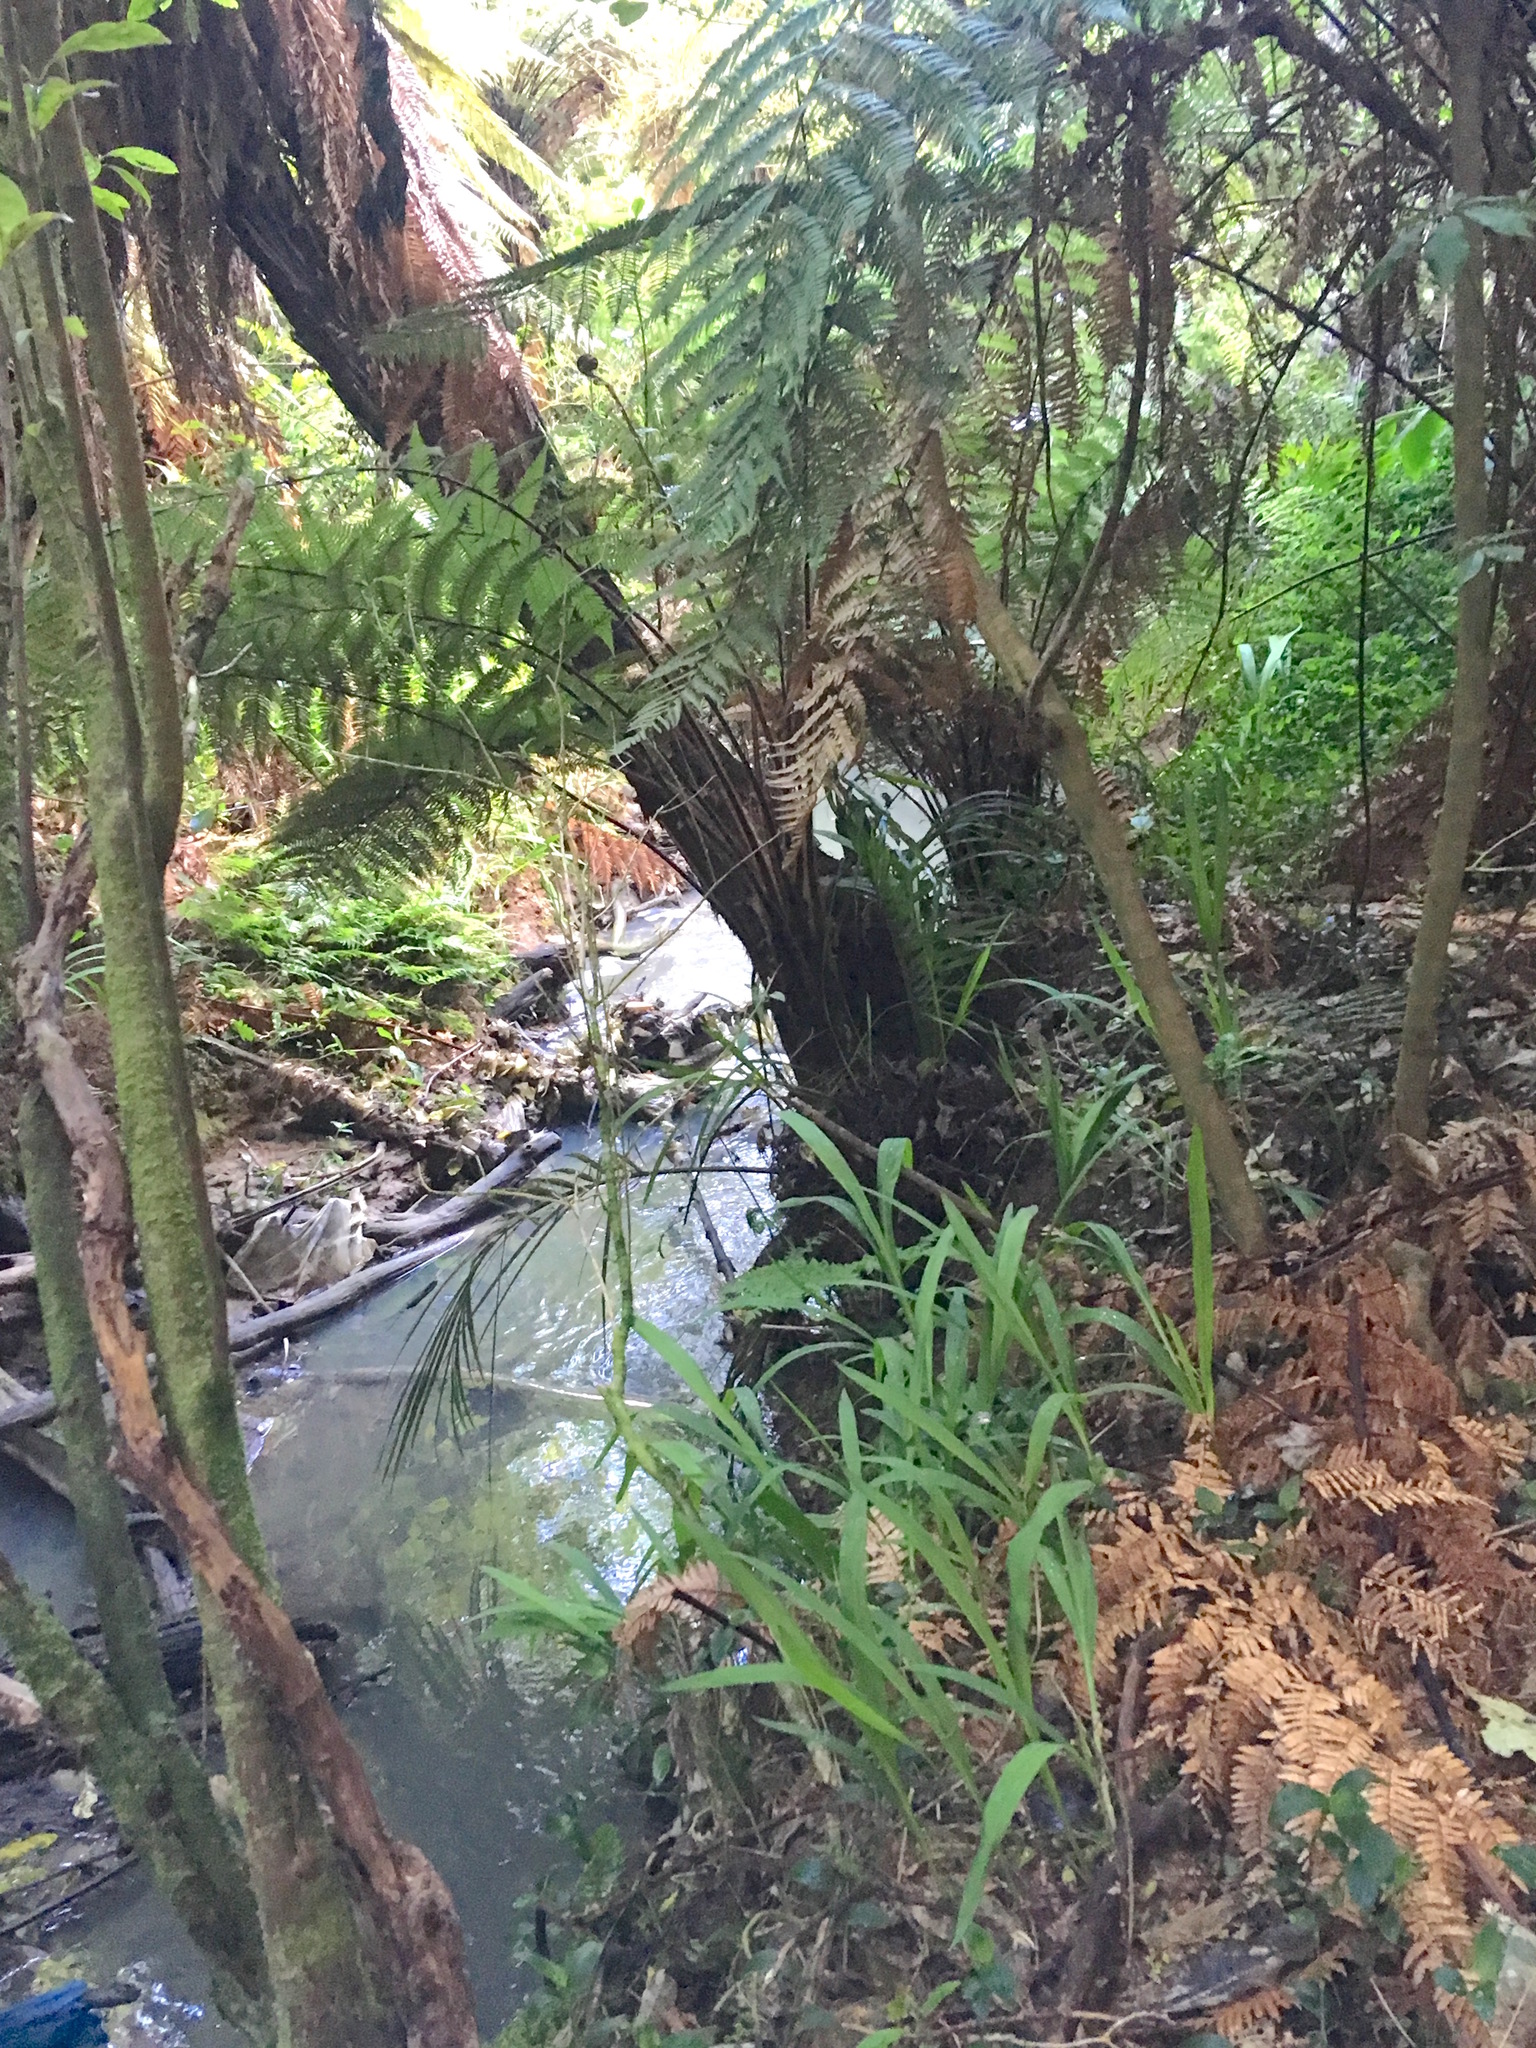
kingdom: Plantae
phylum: Tracheophyta
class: Liliopsida
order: Arecales
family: Arecaceae
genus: Rhopalostylis
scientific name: Rhopalostylis sapida
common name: Feather-duster palm
